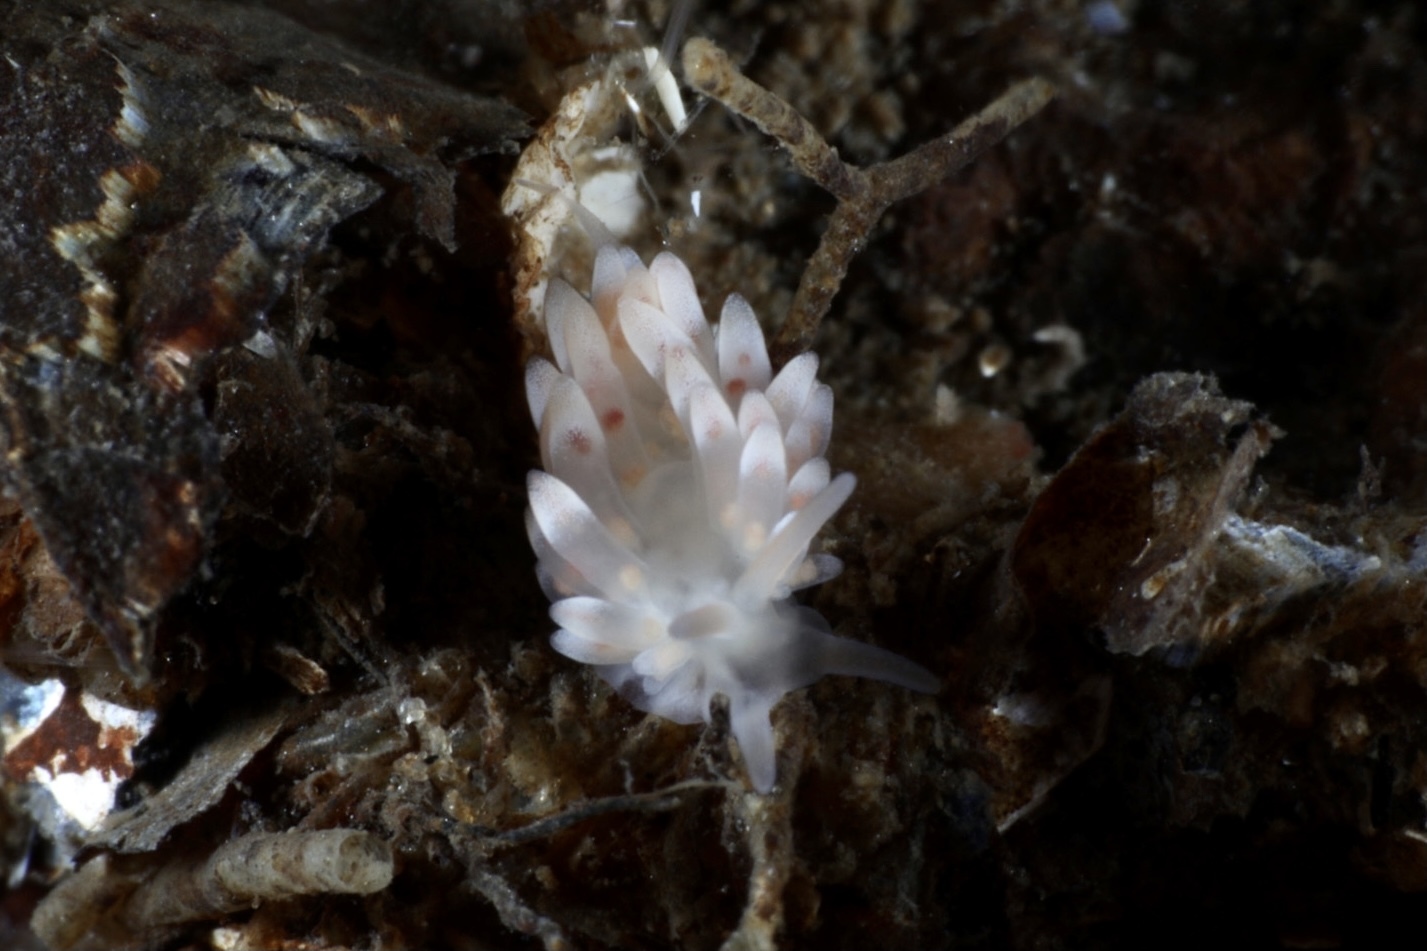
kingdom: Animalia
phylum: Mollusca
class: Gastropoda
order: Nudibranchia
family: Trinchesiidae
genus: Catriona
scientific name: Catriona aurantia
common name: Corange-tip cuthona
